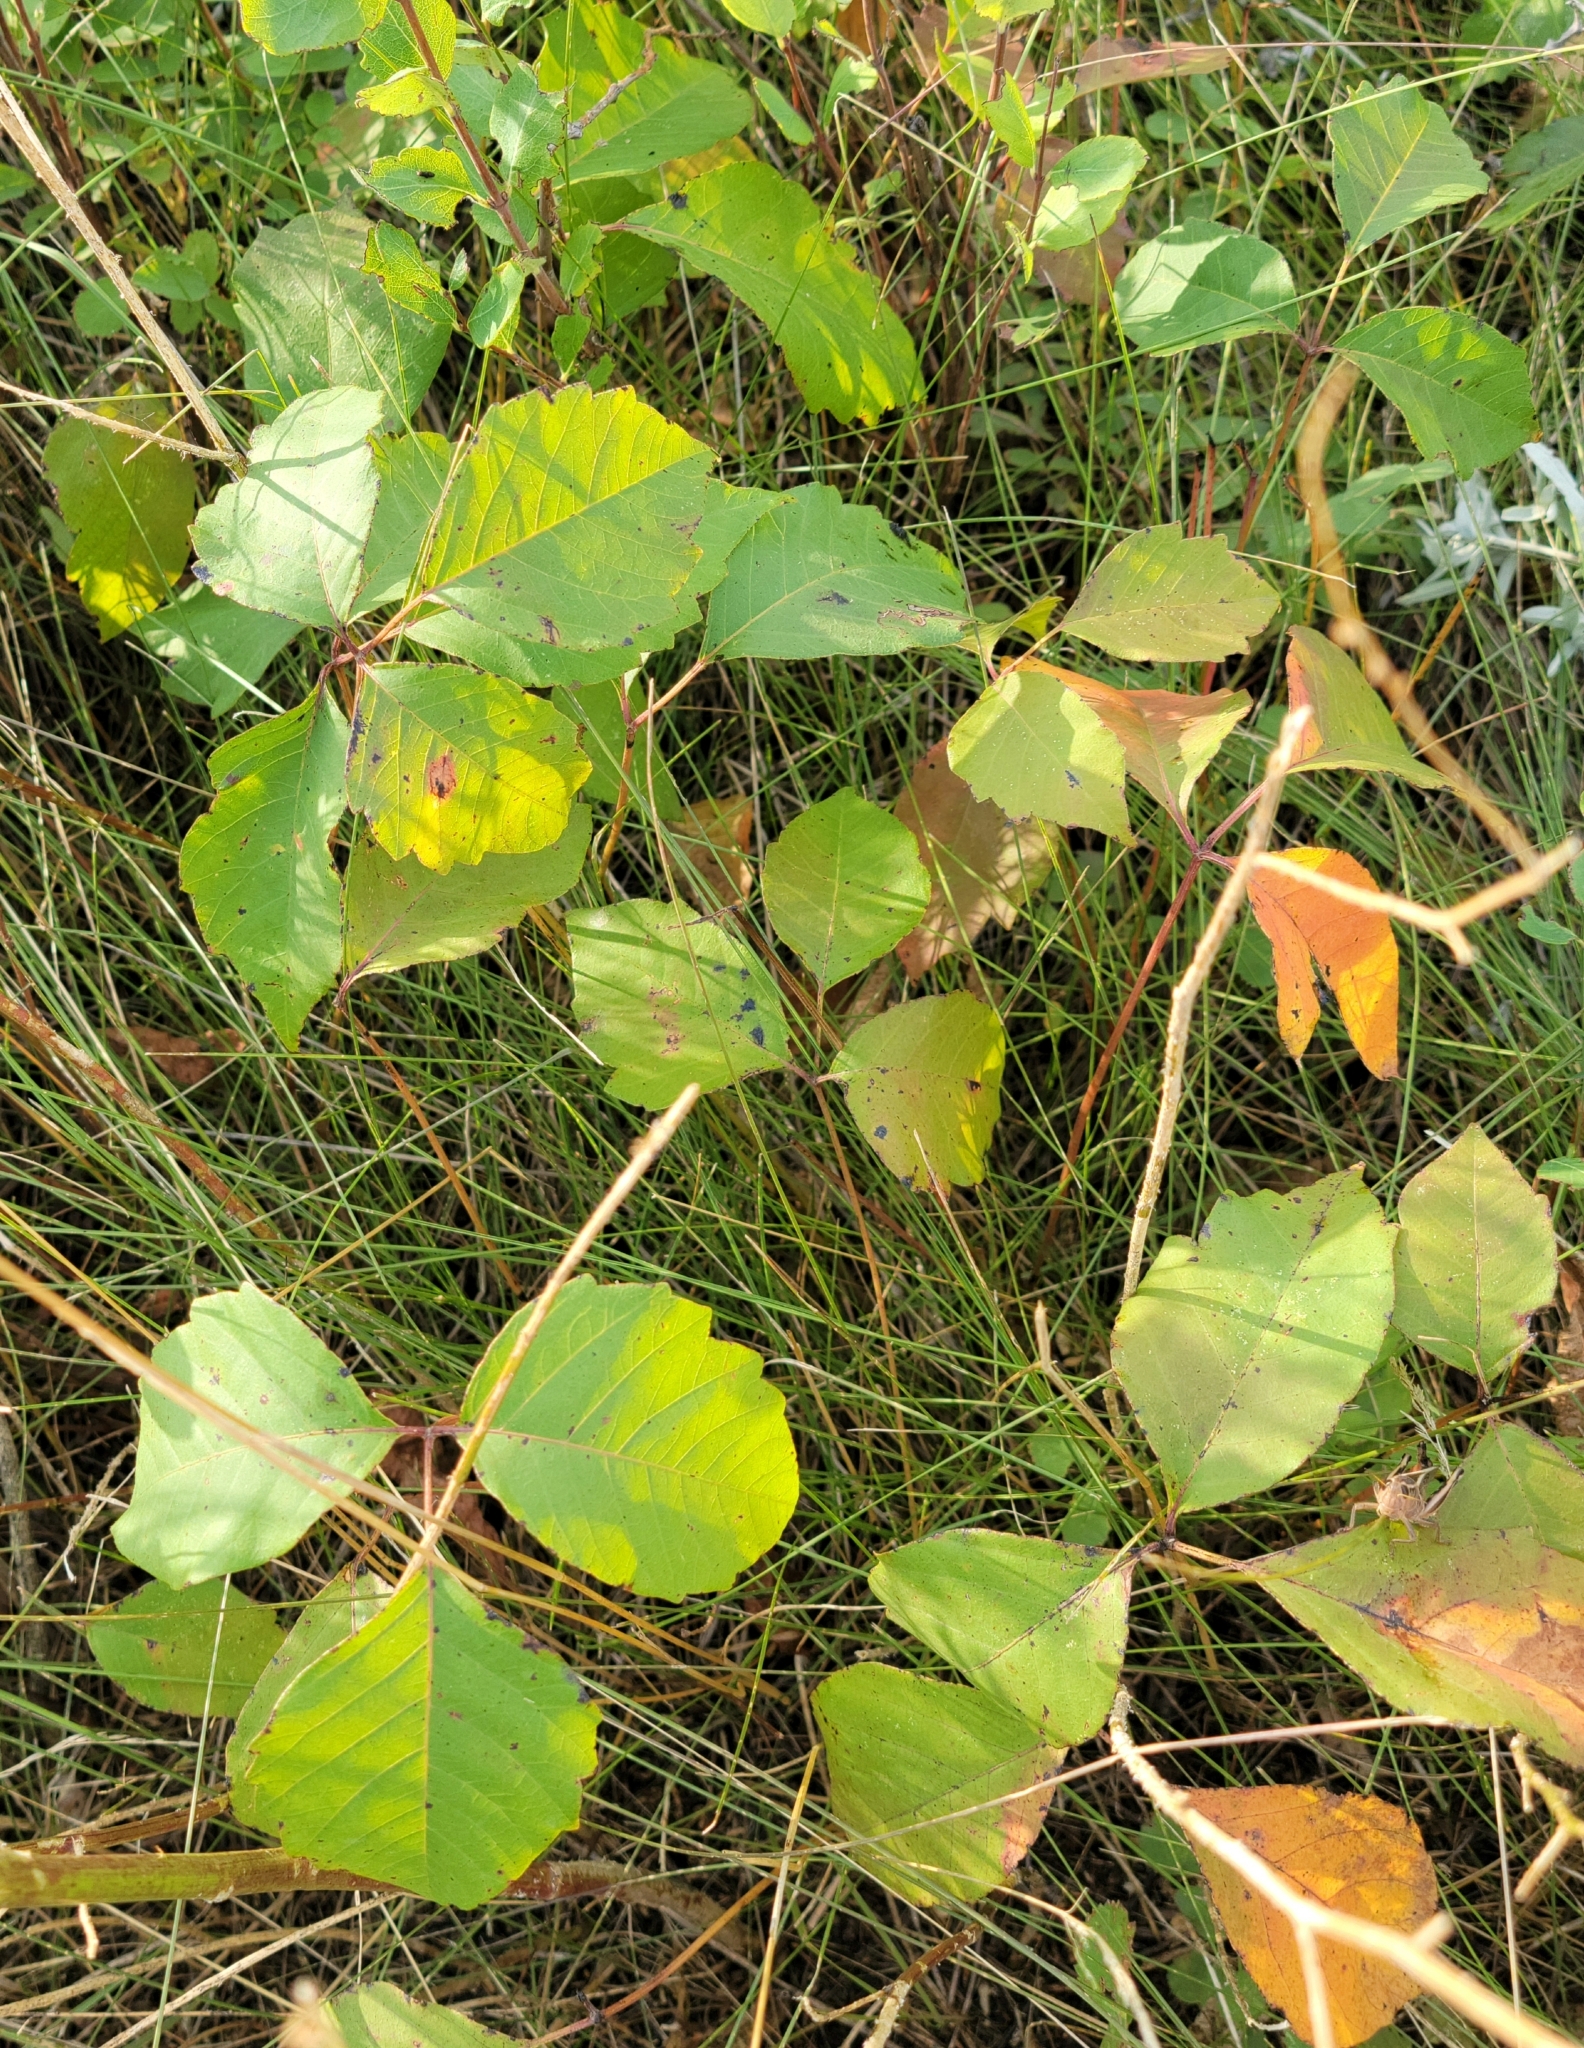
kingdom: Plantae
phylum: Tracheophyta
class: Magnoliopsida
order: Sapindales
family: Anacardiaceae
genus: Toxicodendron
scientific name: Toxicodendron rydbergii
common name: Rydberg's poison-ivy
